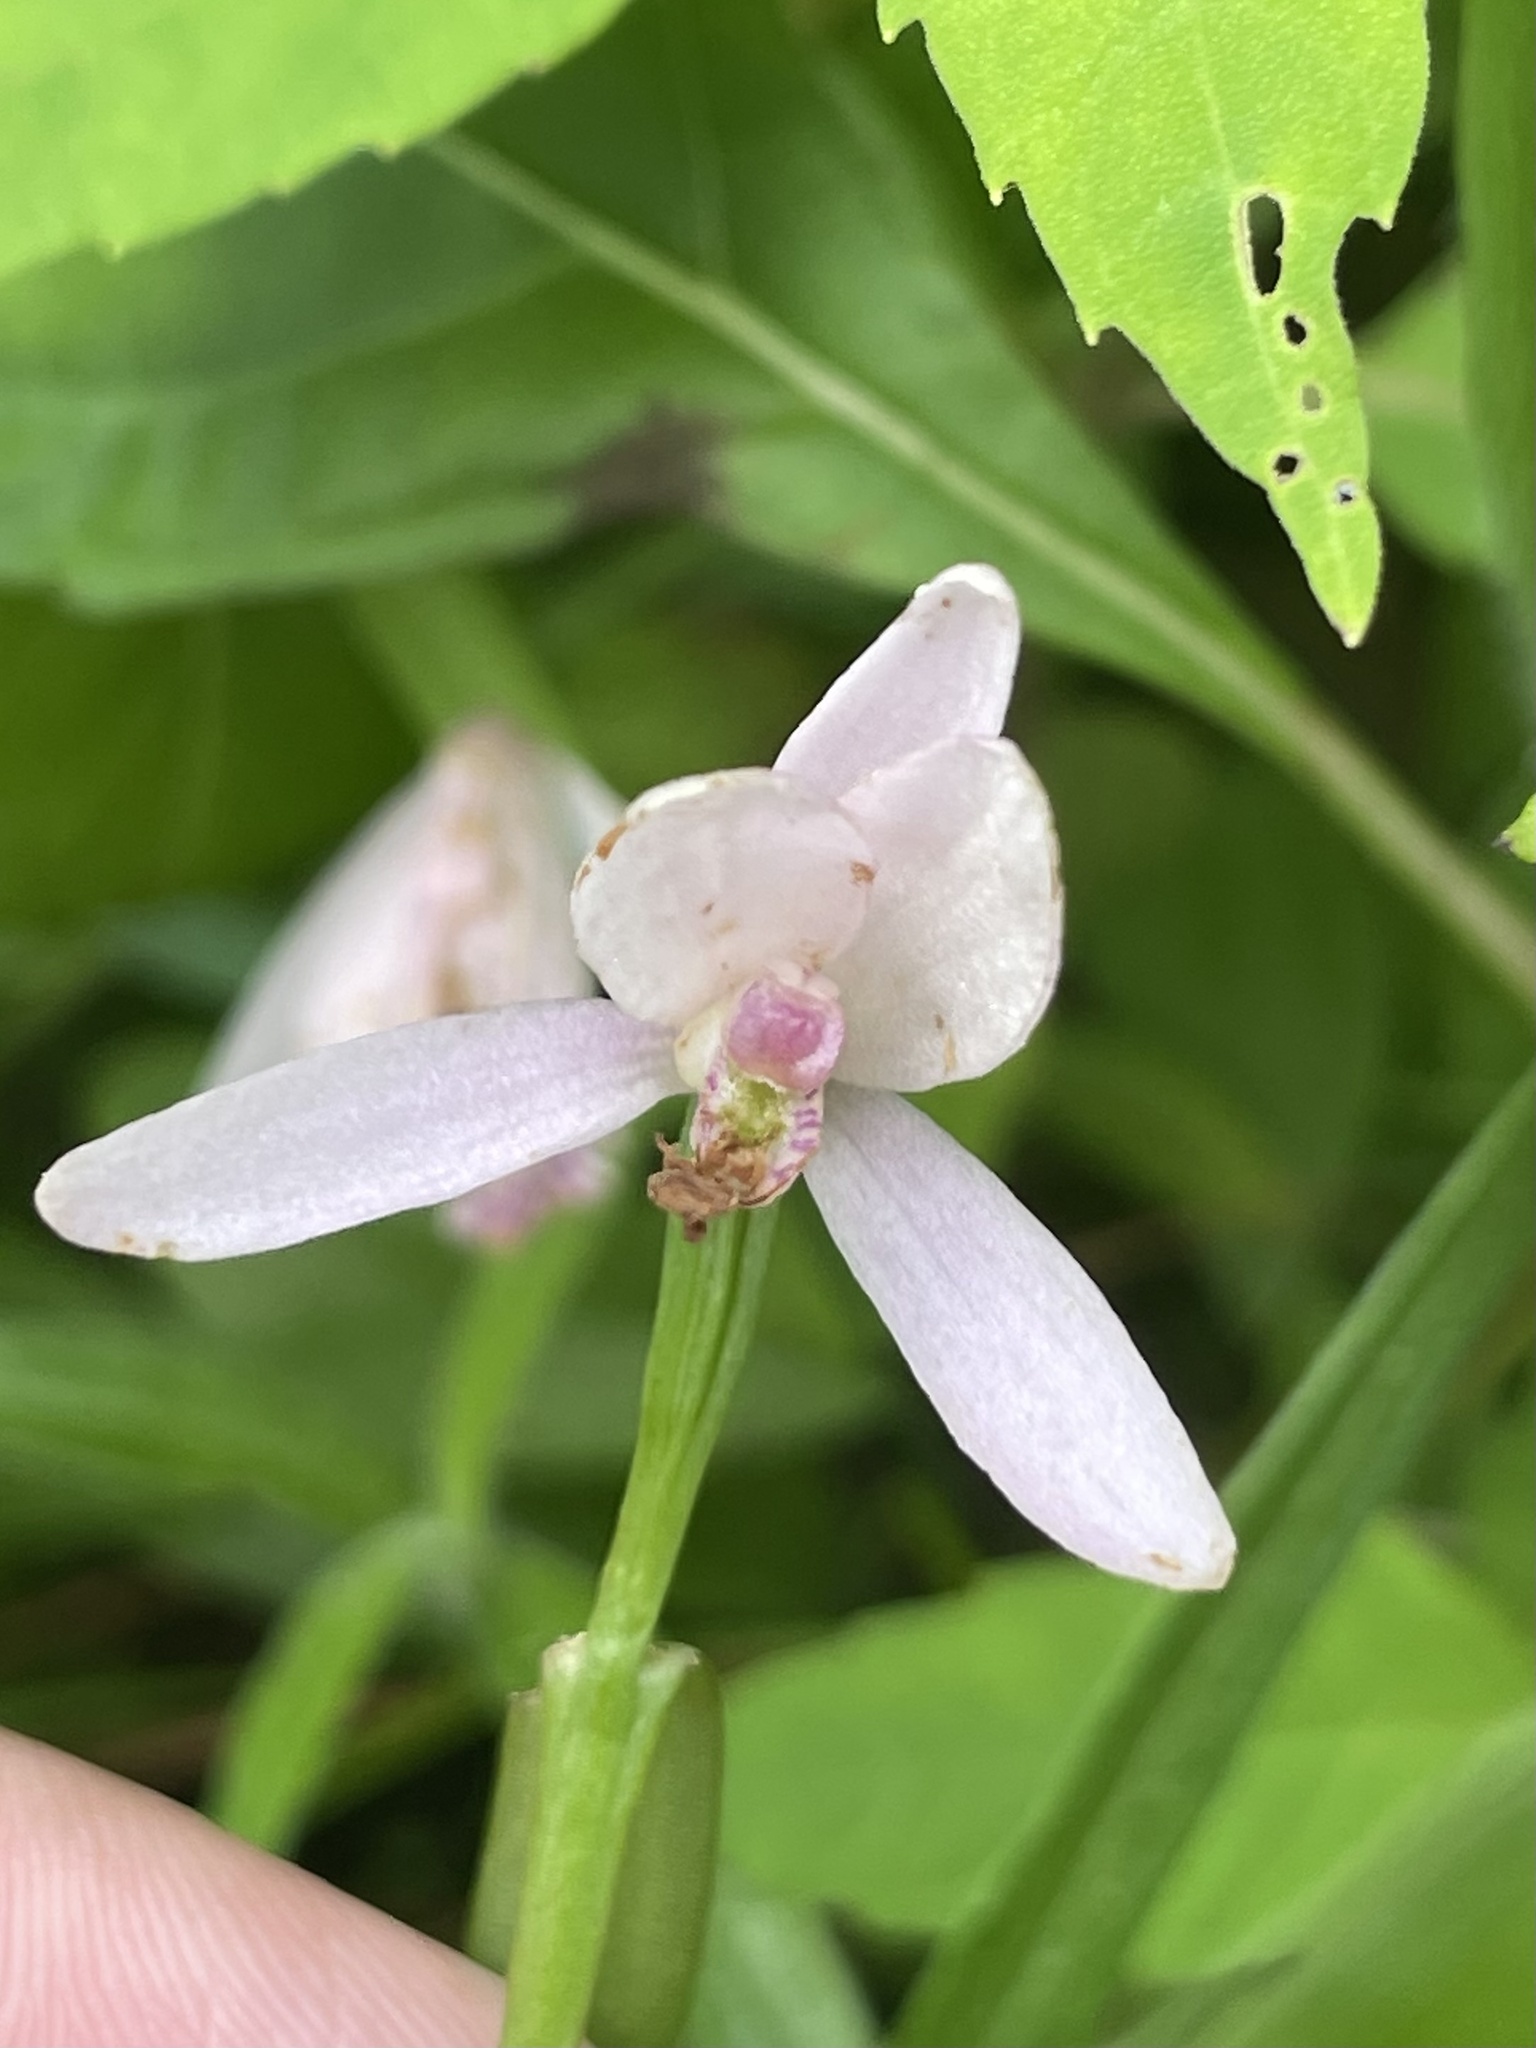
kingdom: Plantae
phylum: Tracheophyta
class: Liliopsida
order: Asparagales
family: Orchidaceae
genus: Pogonia
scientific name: Pogonia ophioglossoides
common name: Rose pogonia
